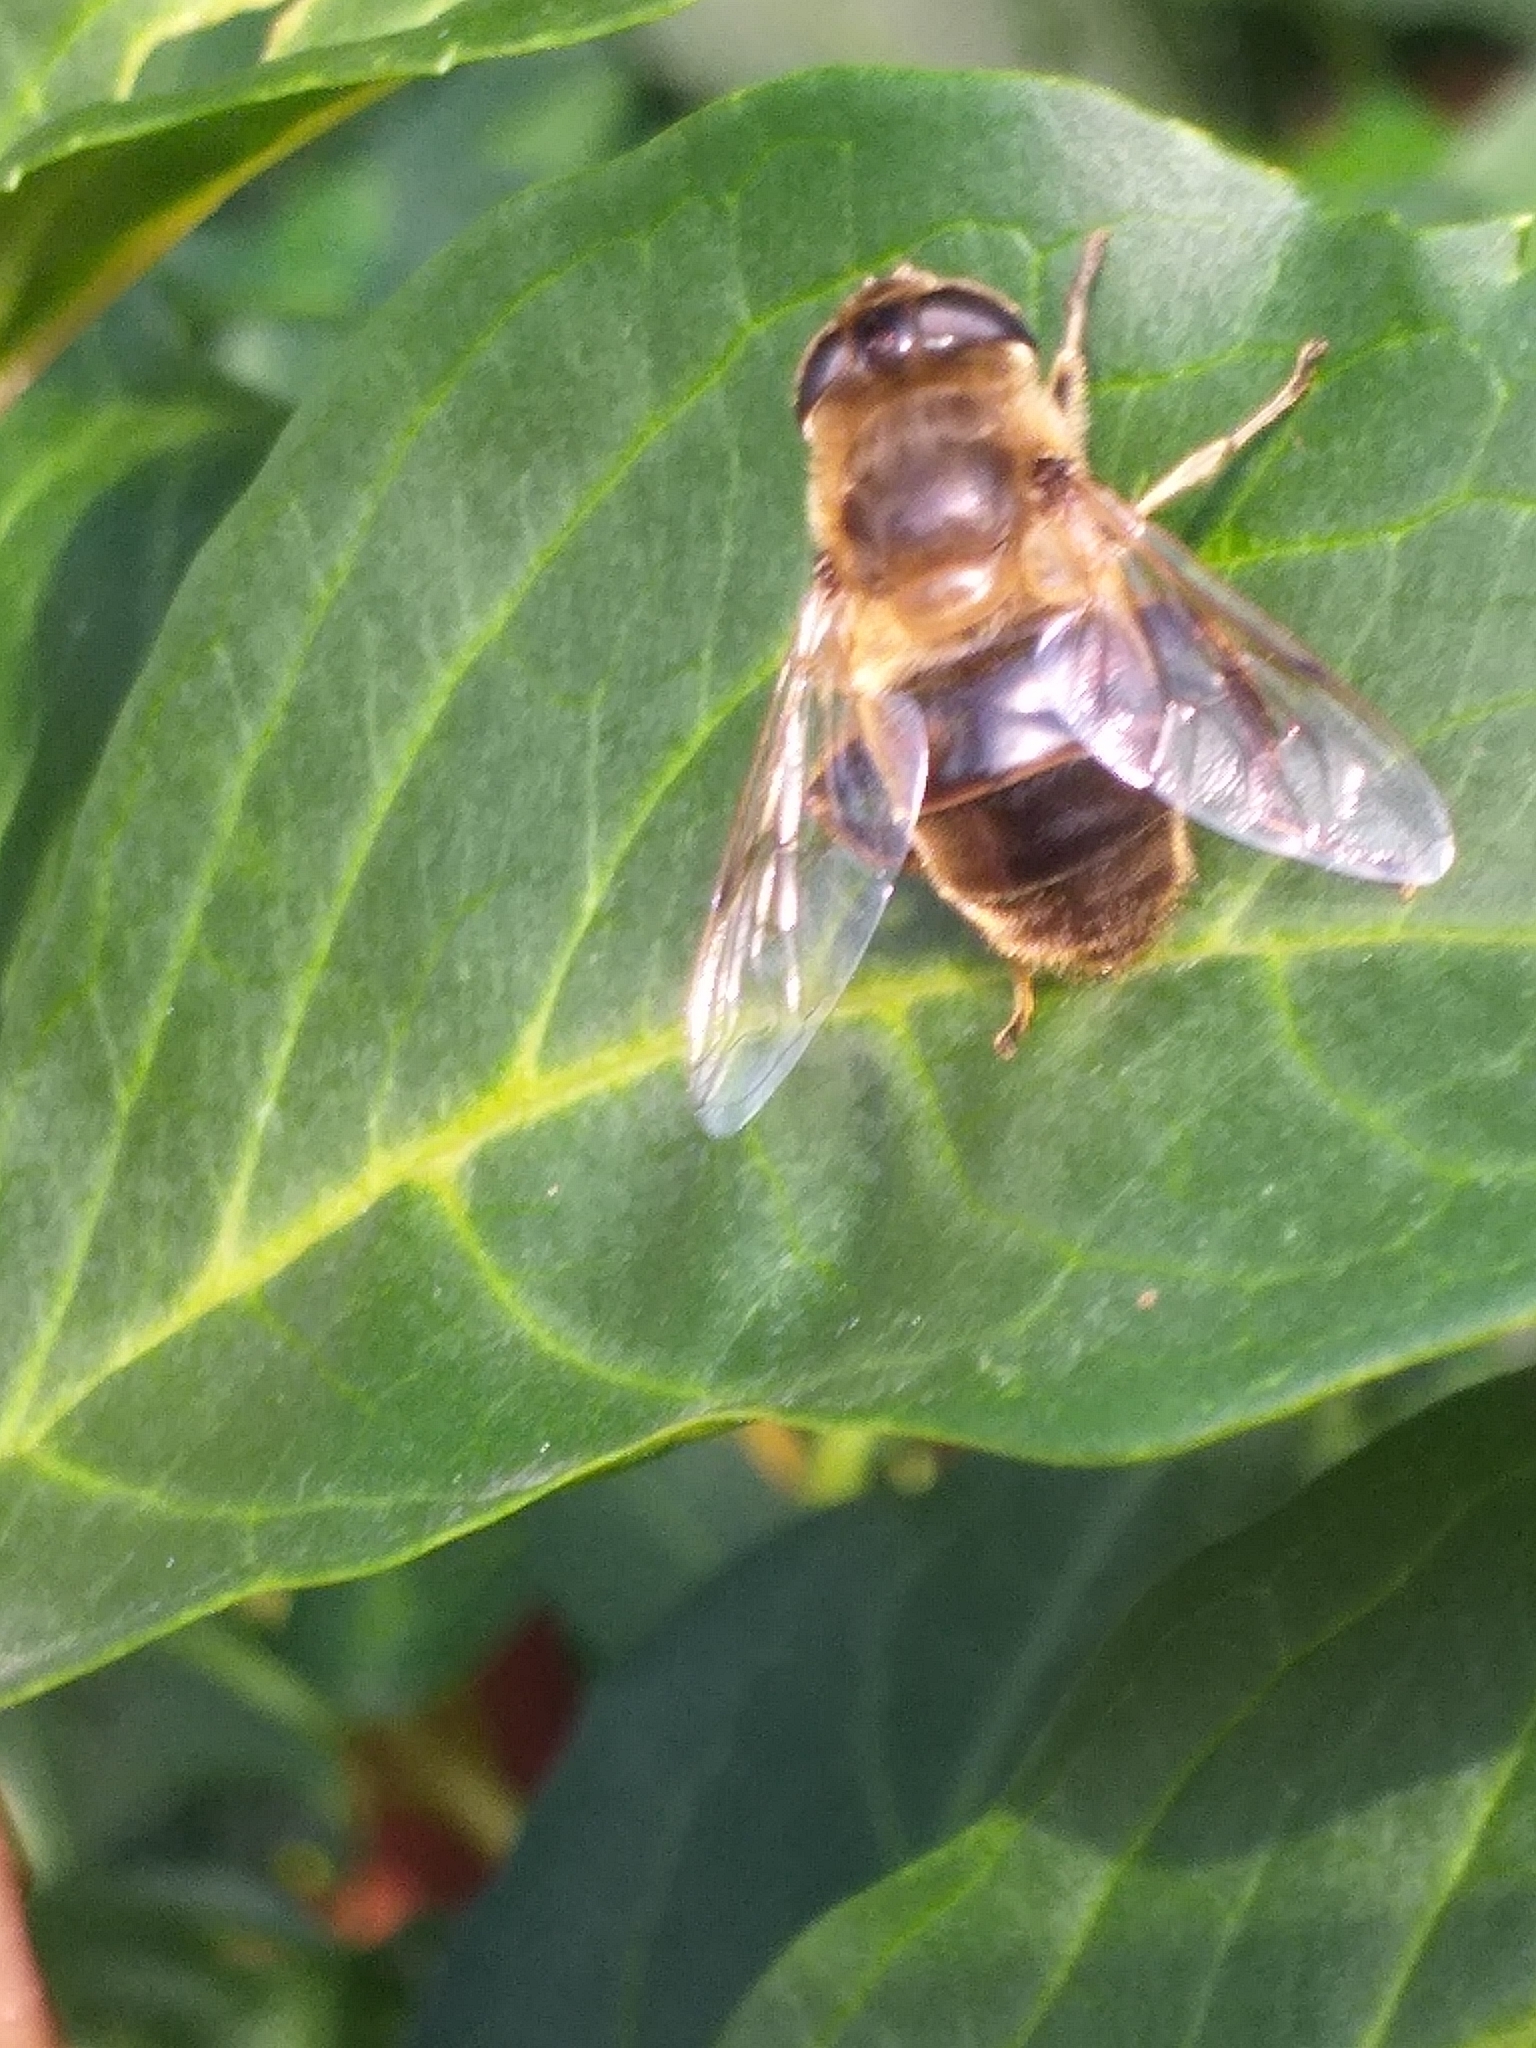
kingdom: Animalia
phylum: Arthropoda
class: Insecta
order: Diptera
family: Syrphidae
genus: Eristalis
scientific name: Eristalis tenax
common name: Drone fly
